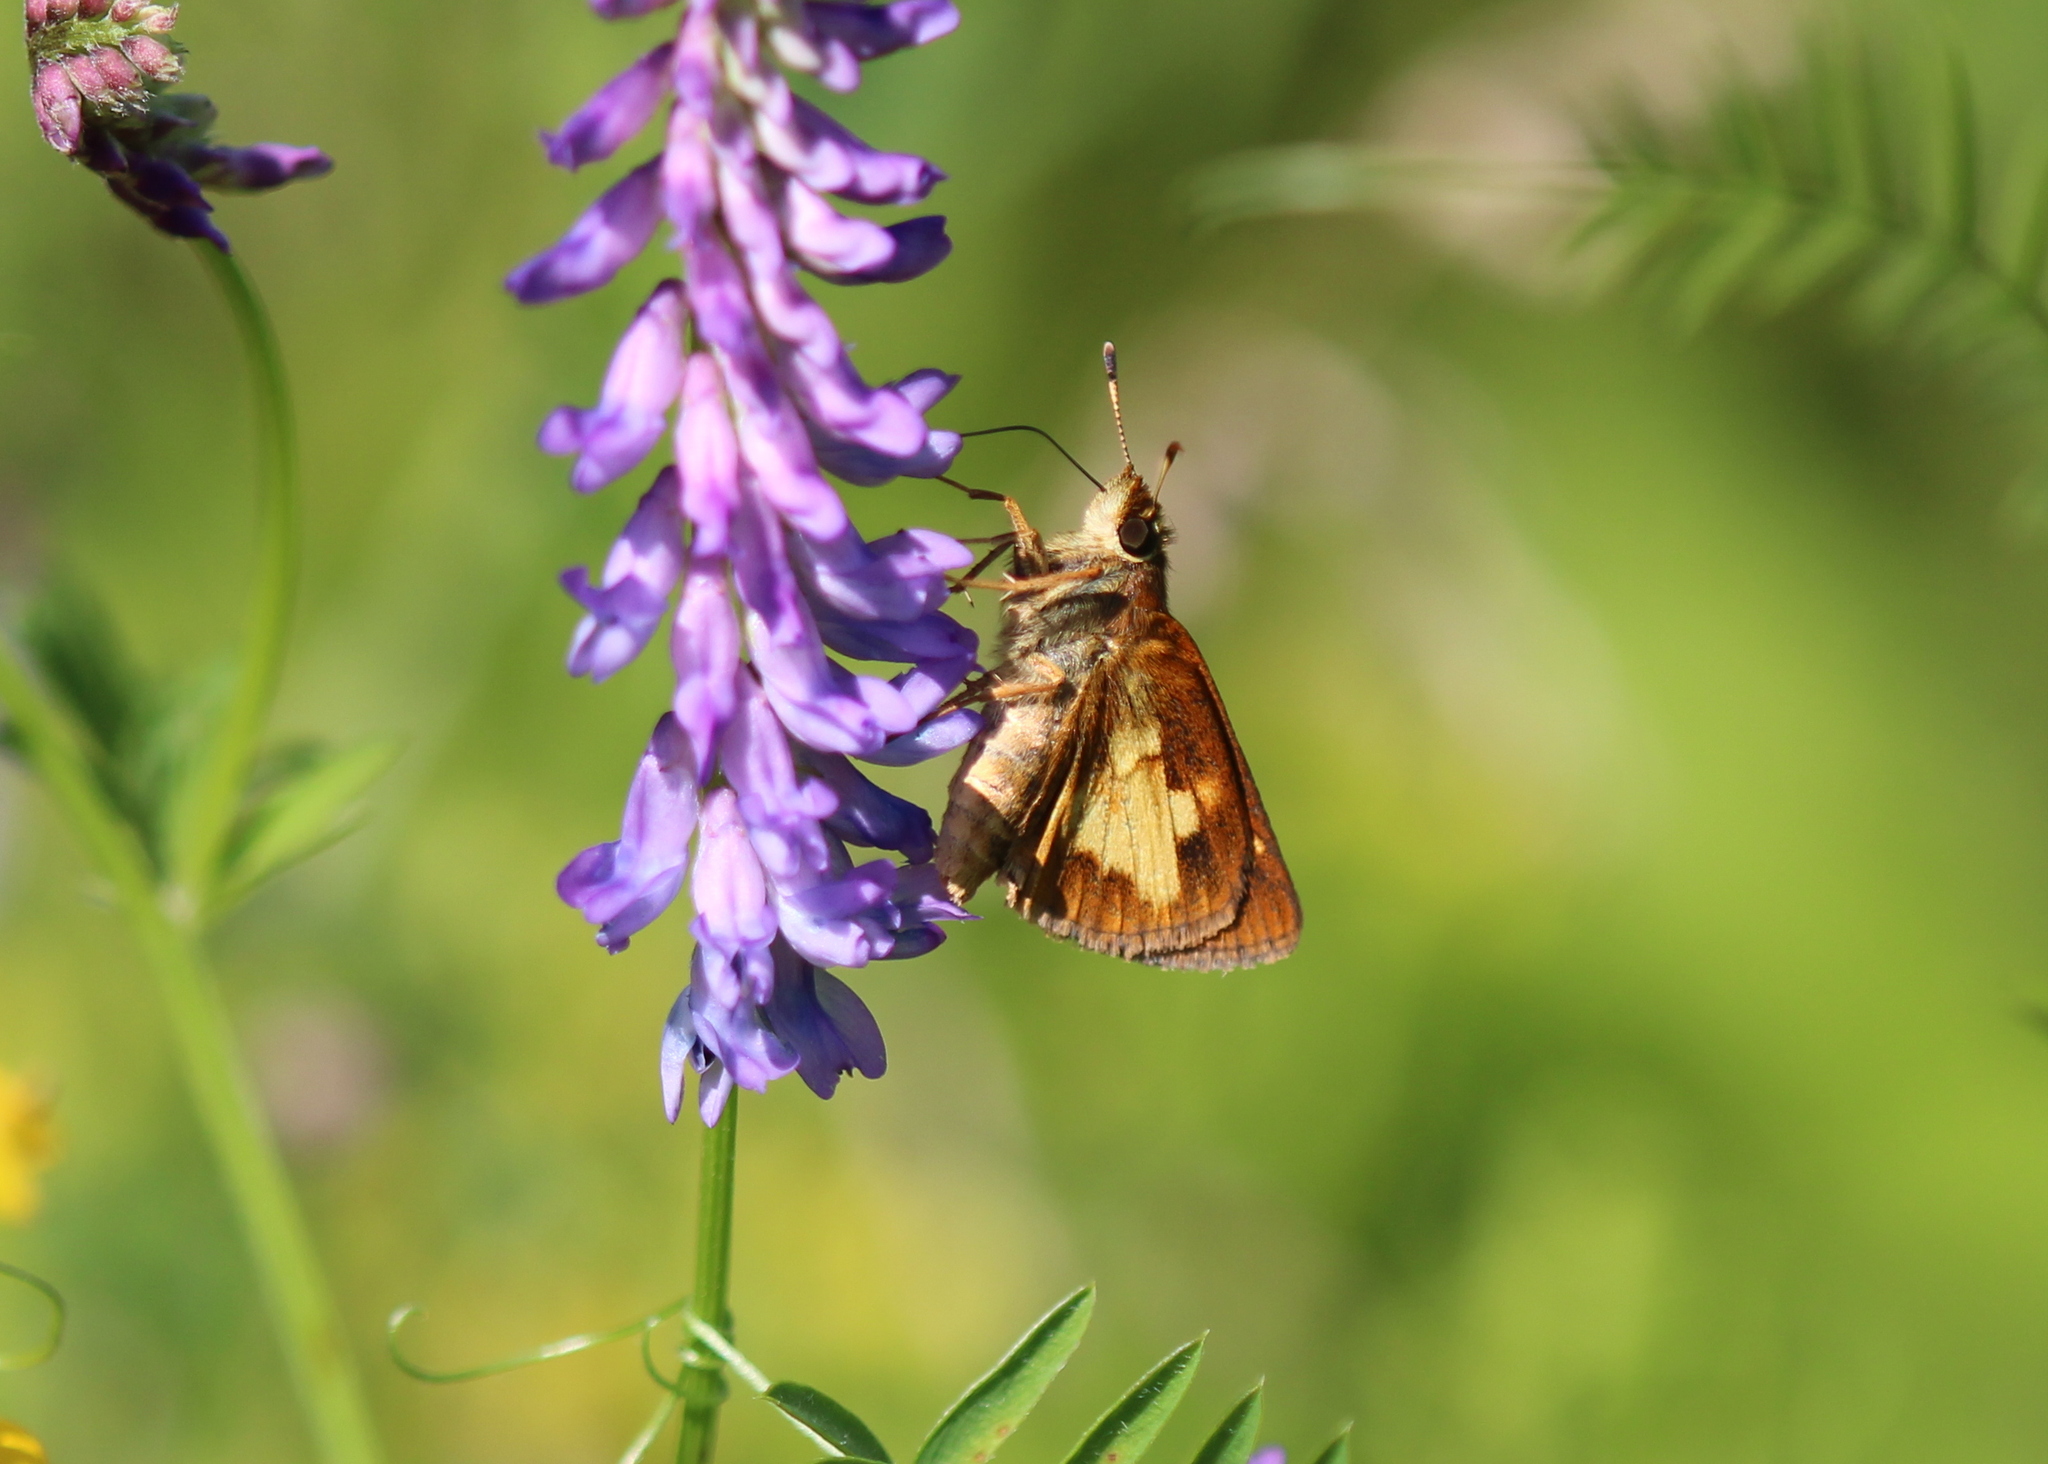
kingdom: Animalia
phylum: Arthropoda
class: Insecta
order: Lepidoptera
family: Hesperiidae
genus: Poanes
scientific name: Poanes massasoit
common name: Mulberrywing
